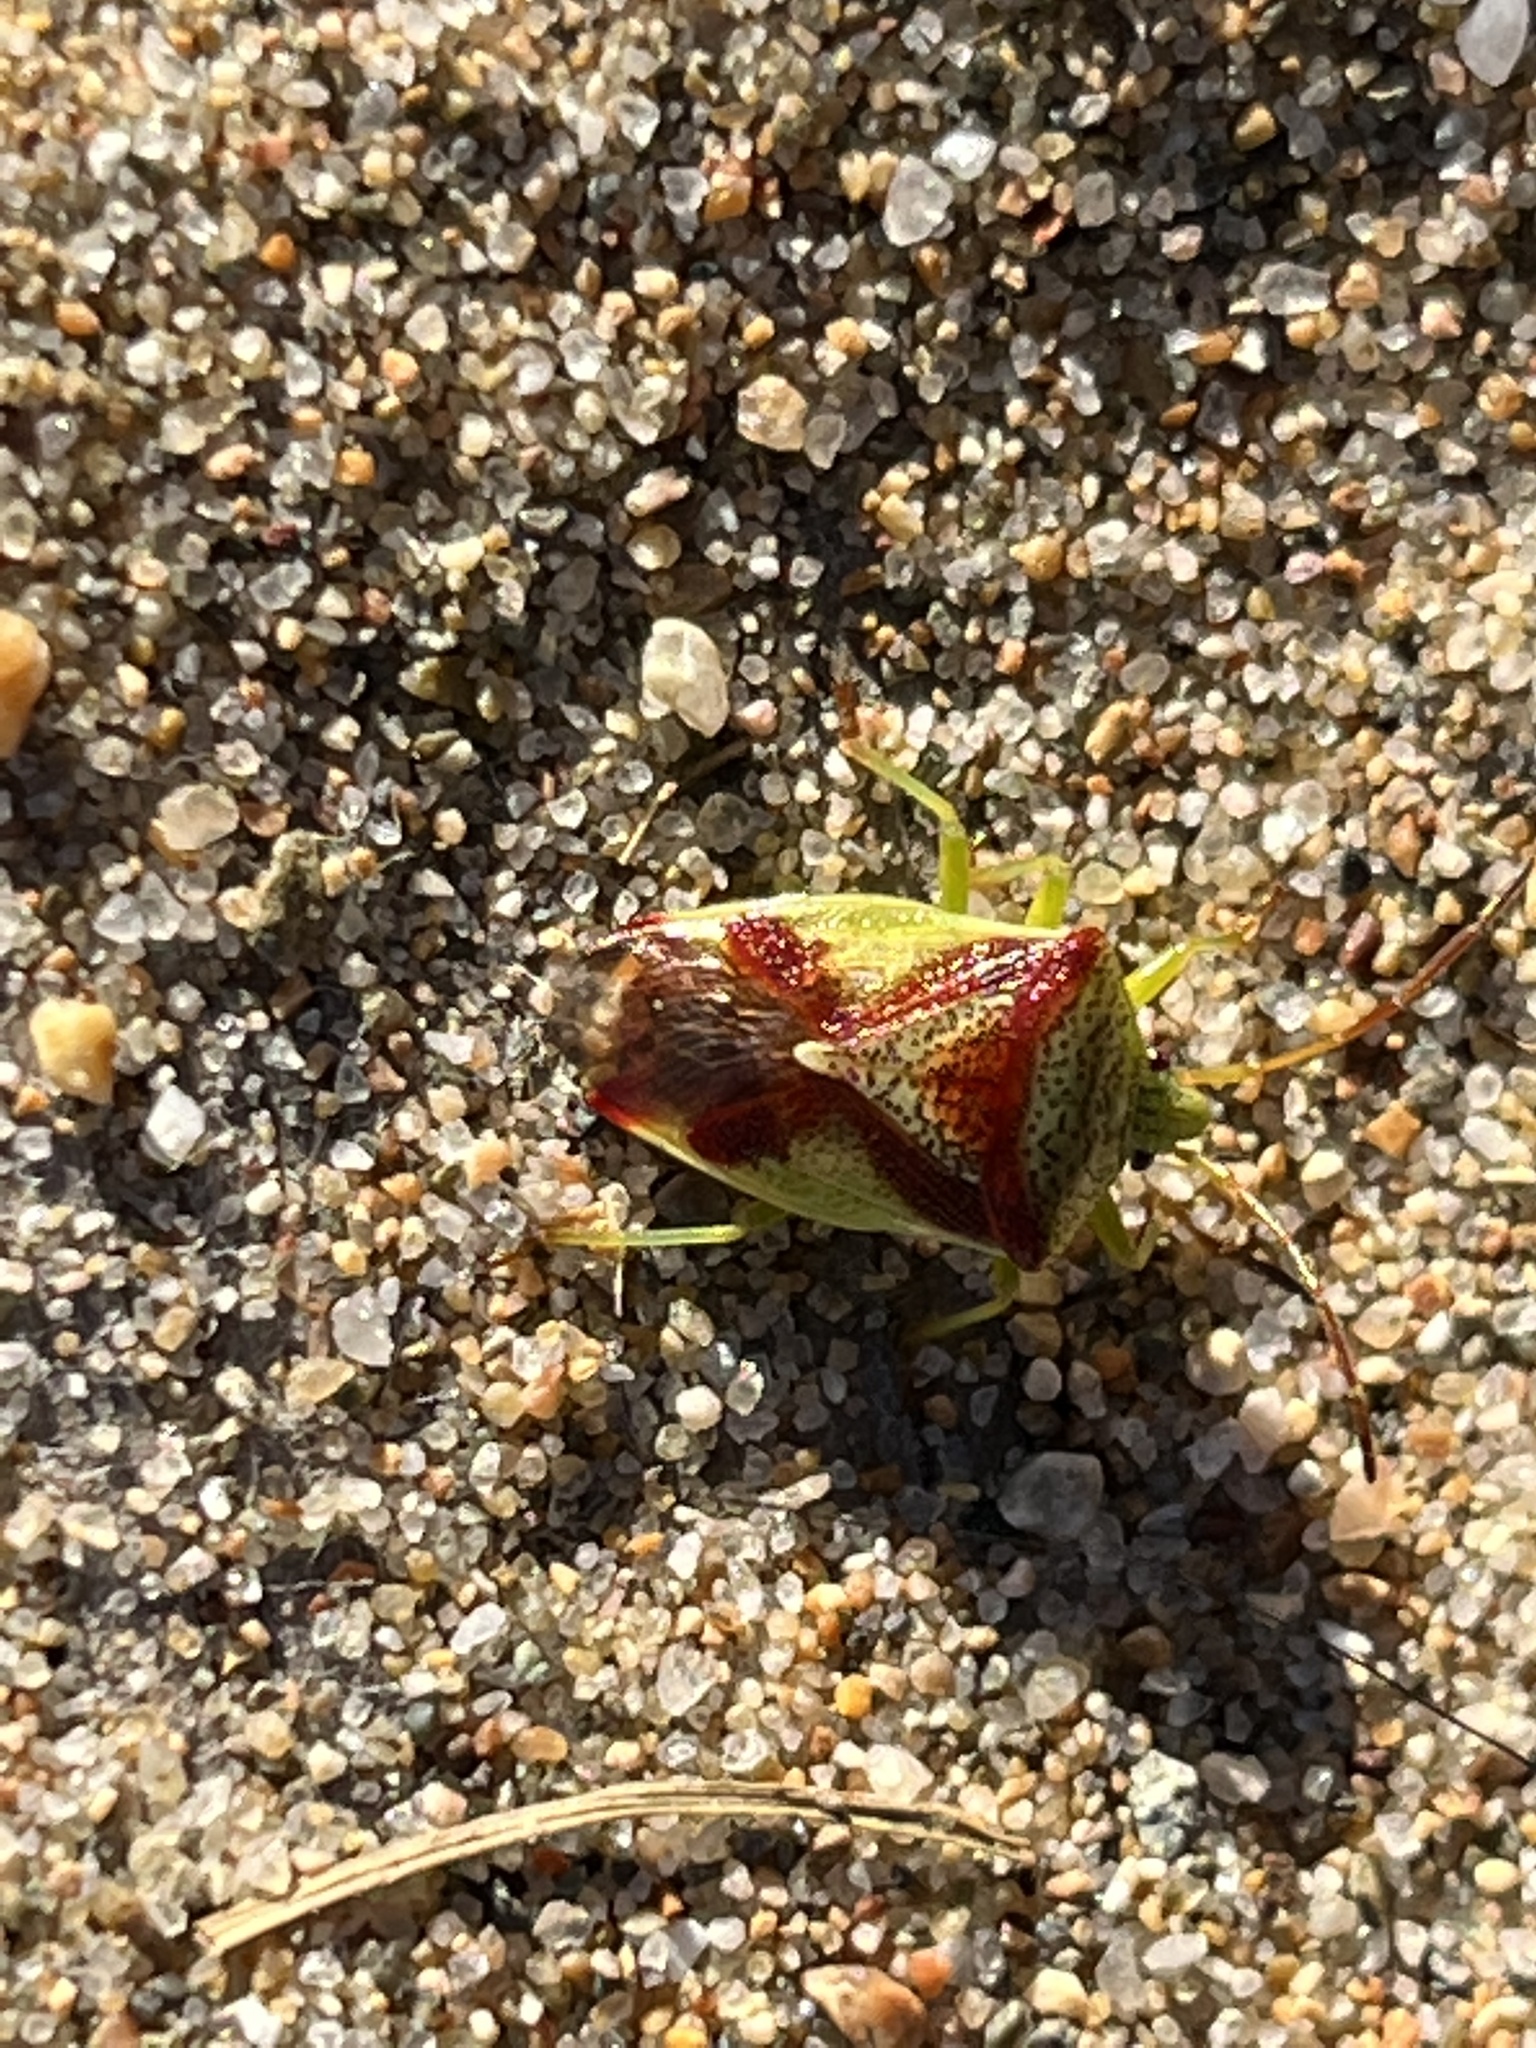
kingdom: Animalia
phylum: Arthropoda
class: Insecta
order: Hemiptera
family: Acanthosomatidae
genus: Elasmostethus
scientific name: Elasmostethus cruciatus
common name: Red-cross shield bug
